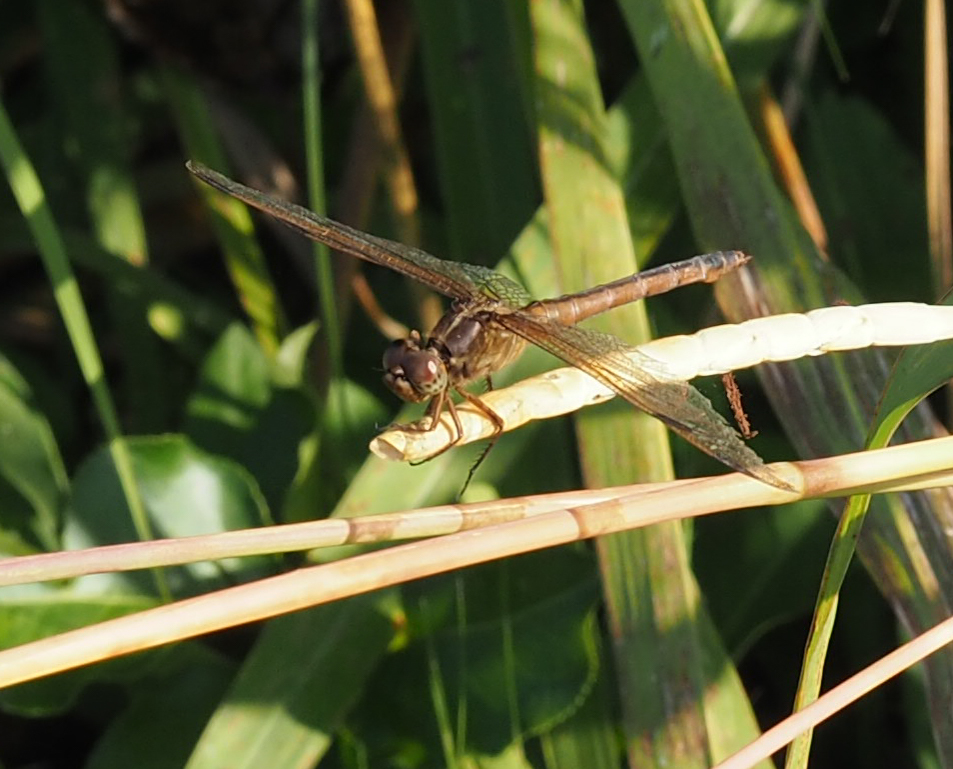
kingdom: Animalia
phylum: Arthropoda
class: Insecta
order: Odonata
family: Libellulidae
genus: Libellula
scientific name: Libellula needhami
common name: Needham's skimmer
